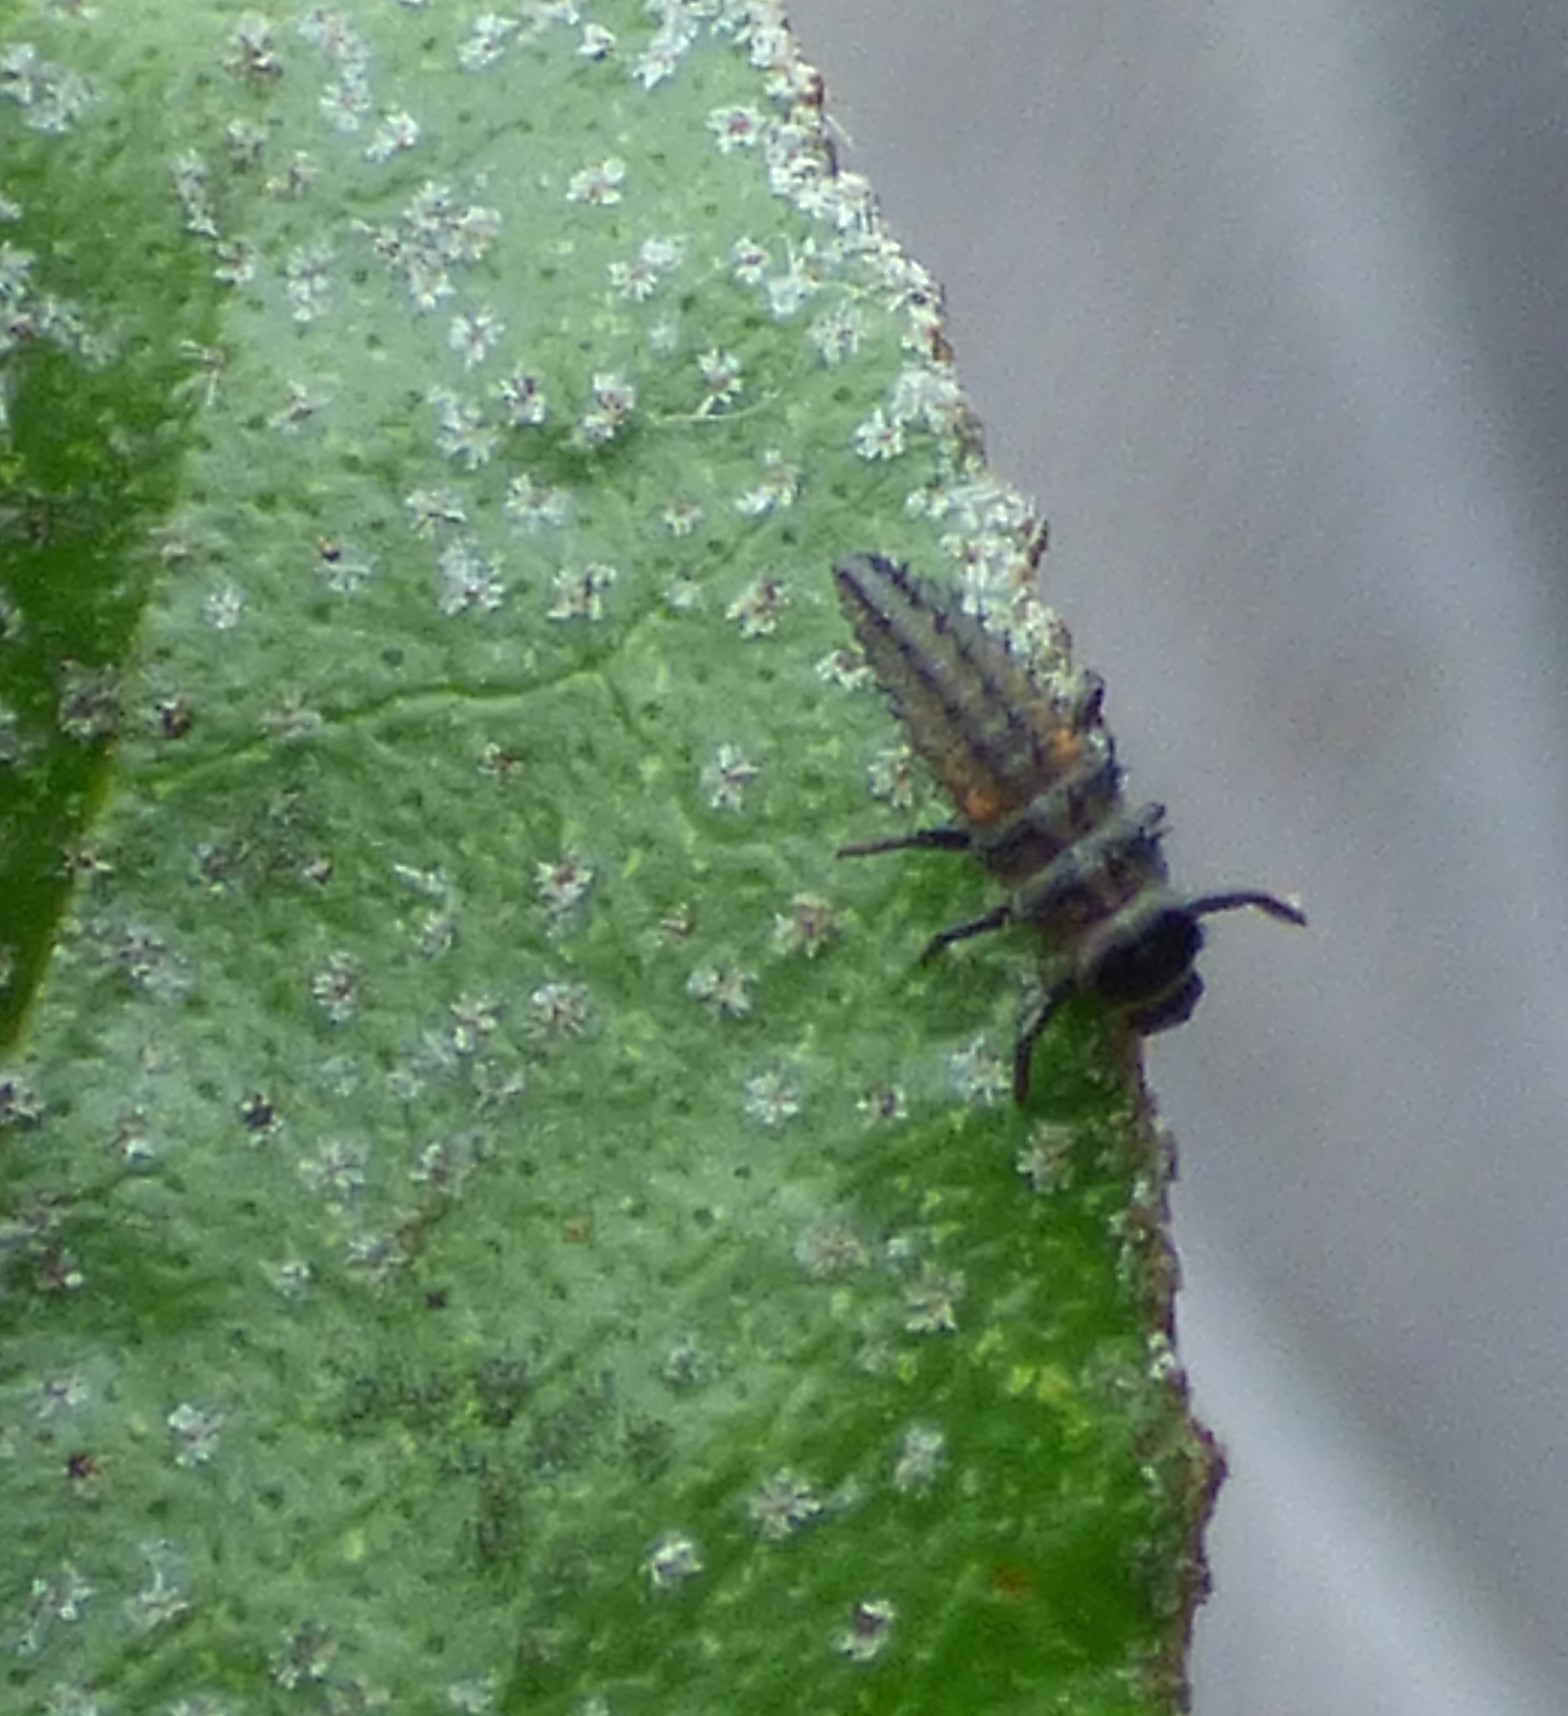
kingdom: Animalia
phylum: Arthropoda
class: Insecta
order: Coleoptera
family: Coccinellidae
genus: Harmonia
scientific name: Harmonia axyridis
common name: Harlequin ladybird
